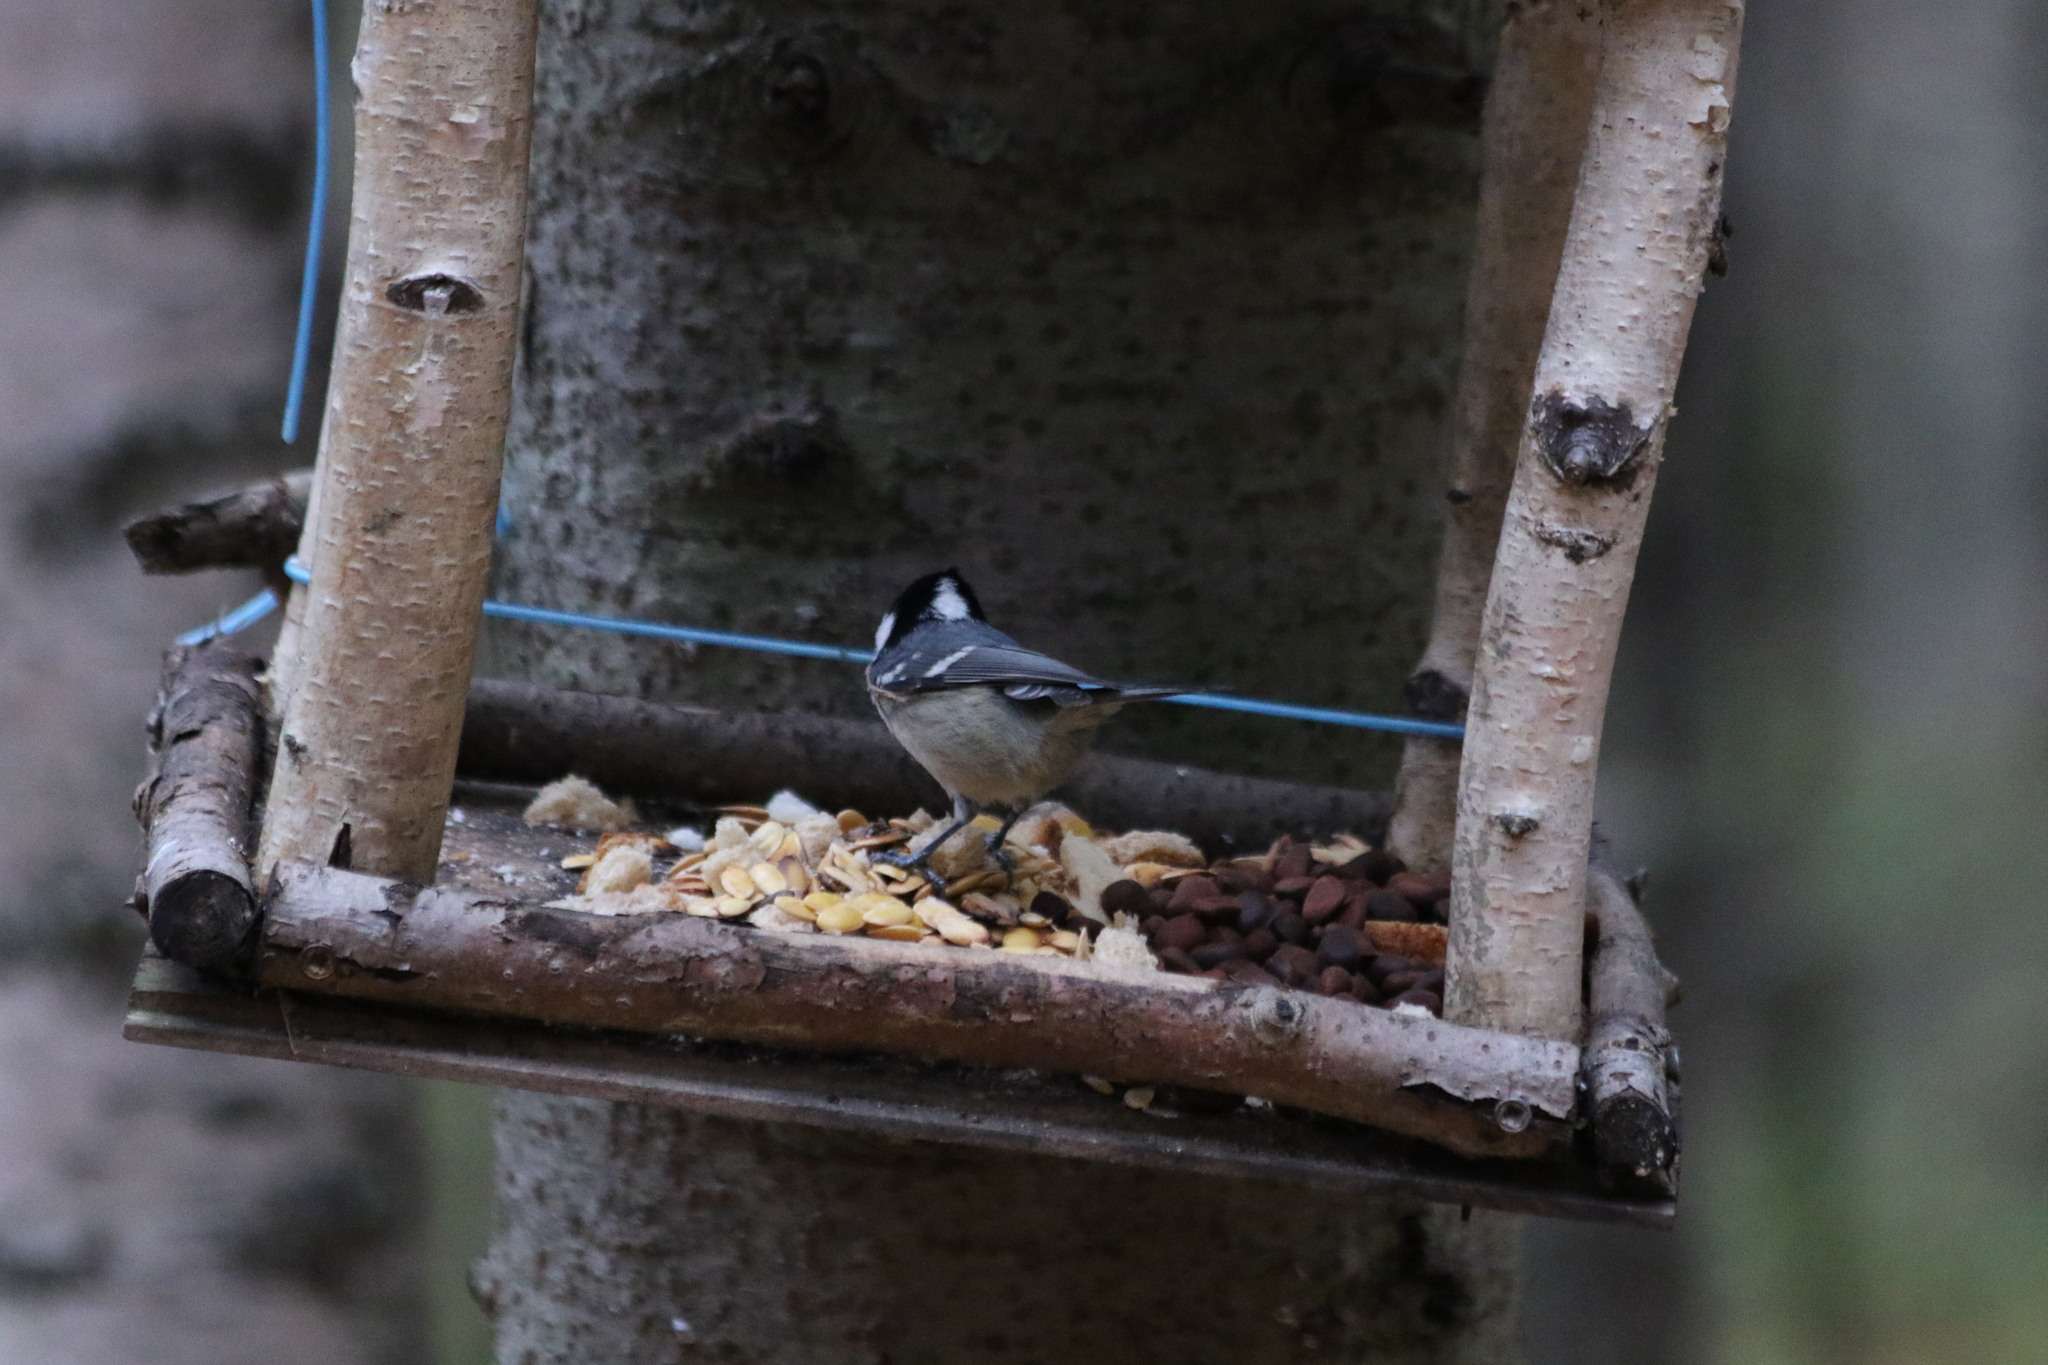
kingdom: Animalia
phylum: Chordata
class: Aves
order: Passeriformes
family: Paridae
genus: Periparus
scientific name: Periparus ater
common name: Coal tit
